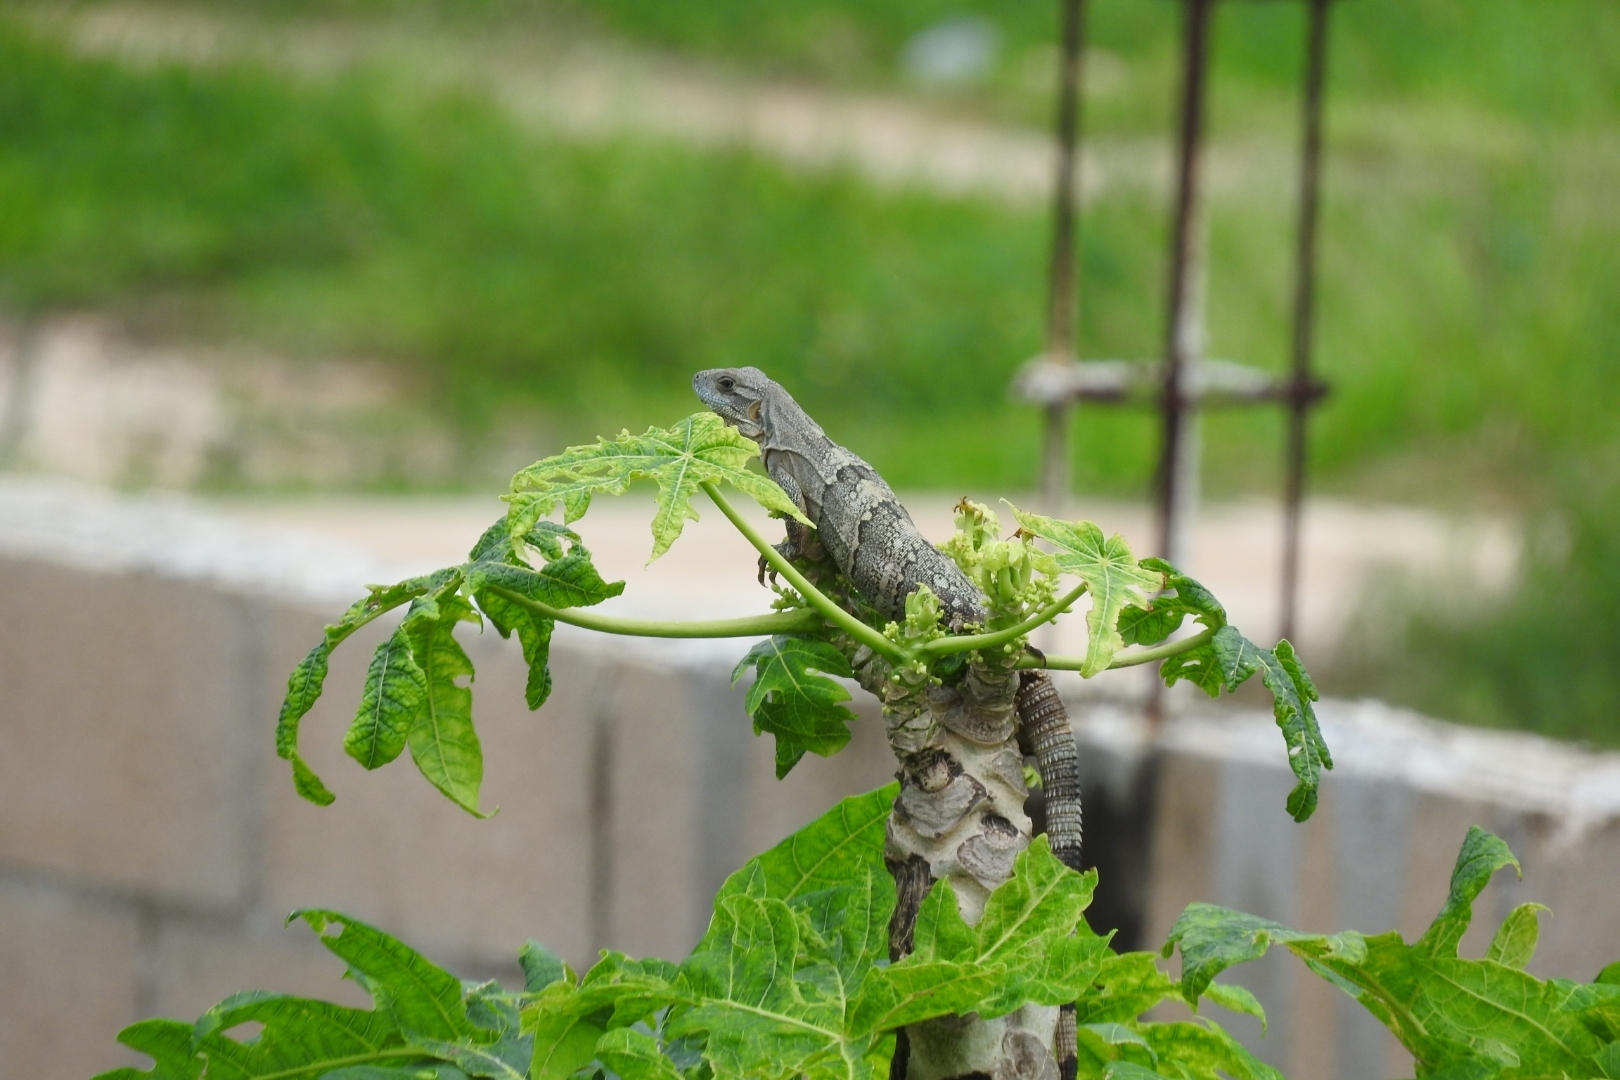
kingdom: Animalia
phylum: Chordata
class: Squamata
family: Iguanidae
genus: Ctenosaura
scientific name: Ctenosaura similis
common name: Black spiny-tailed iguana
